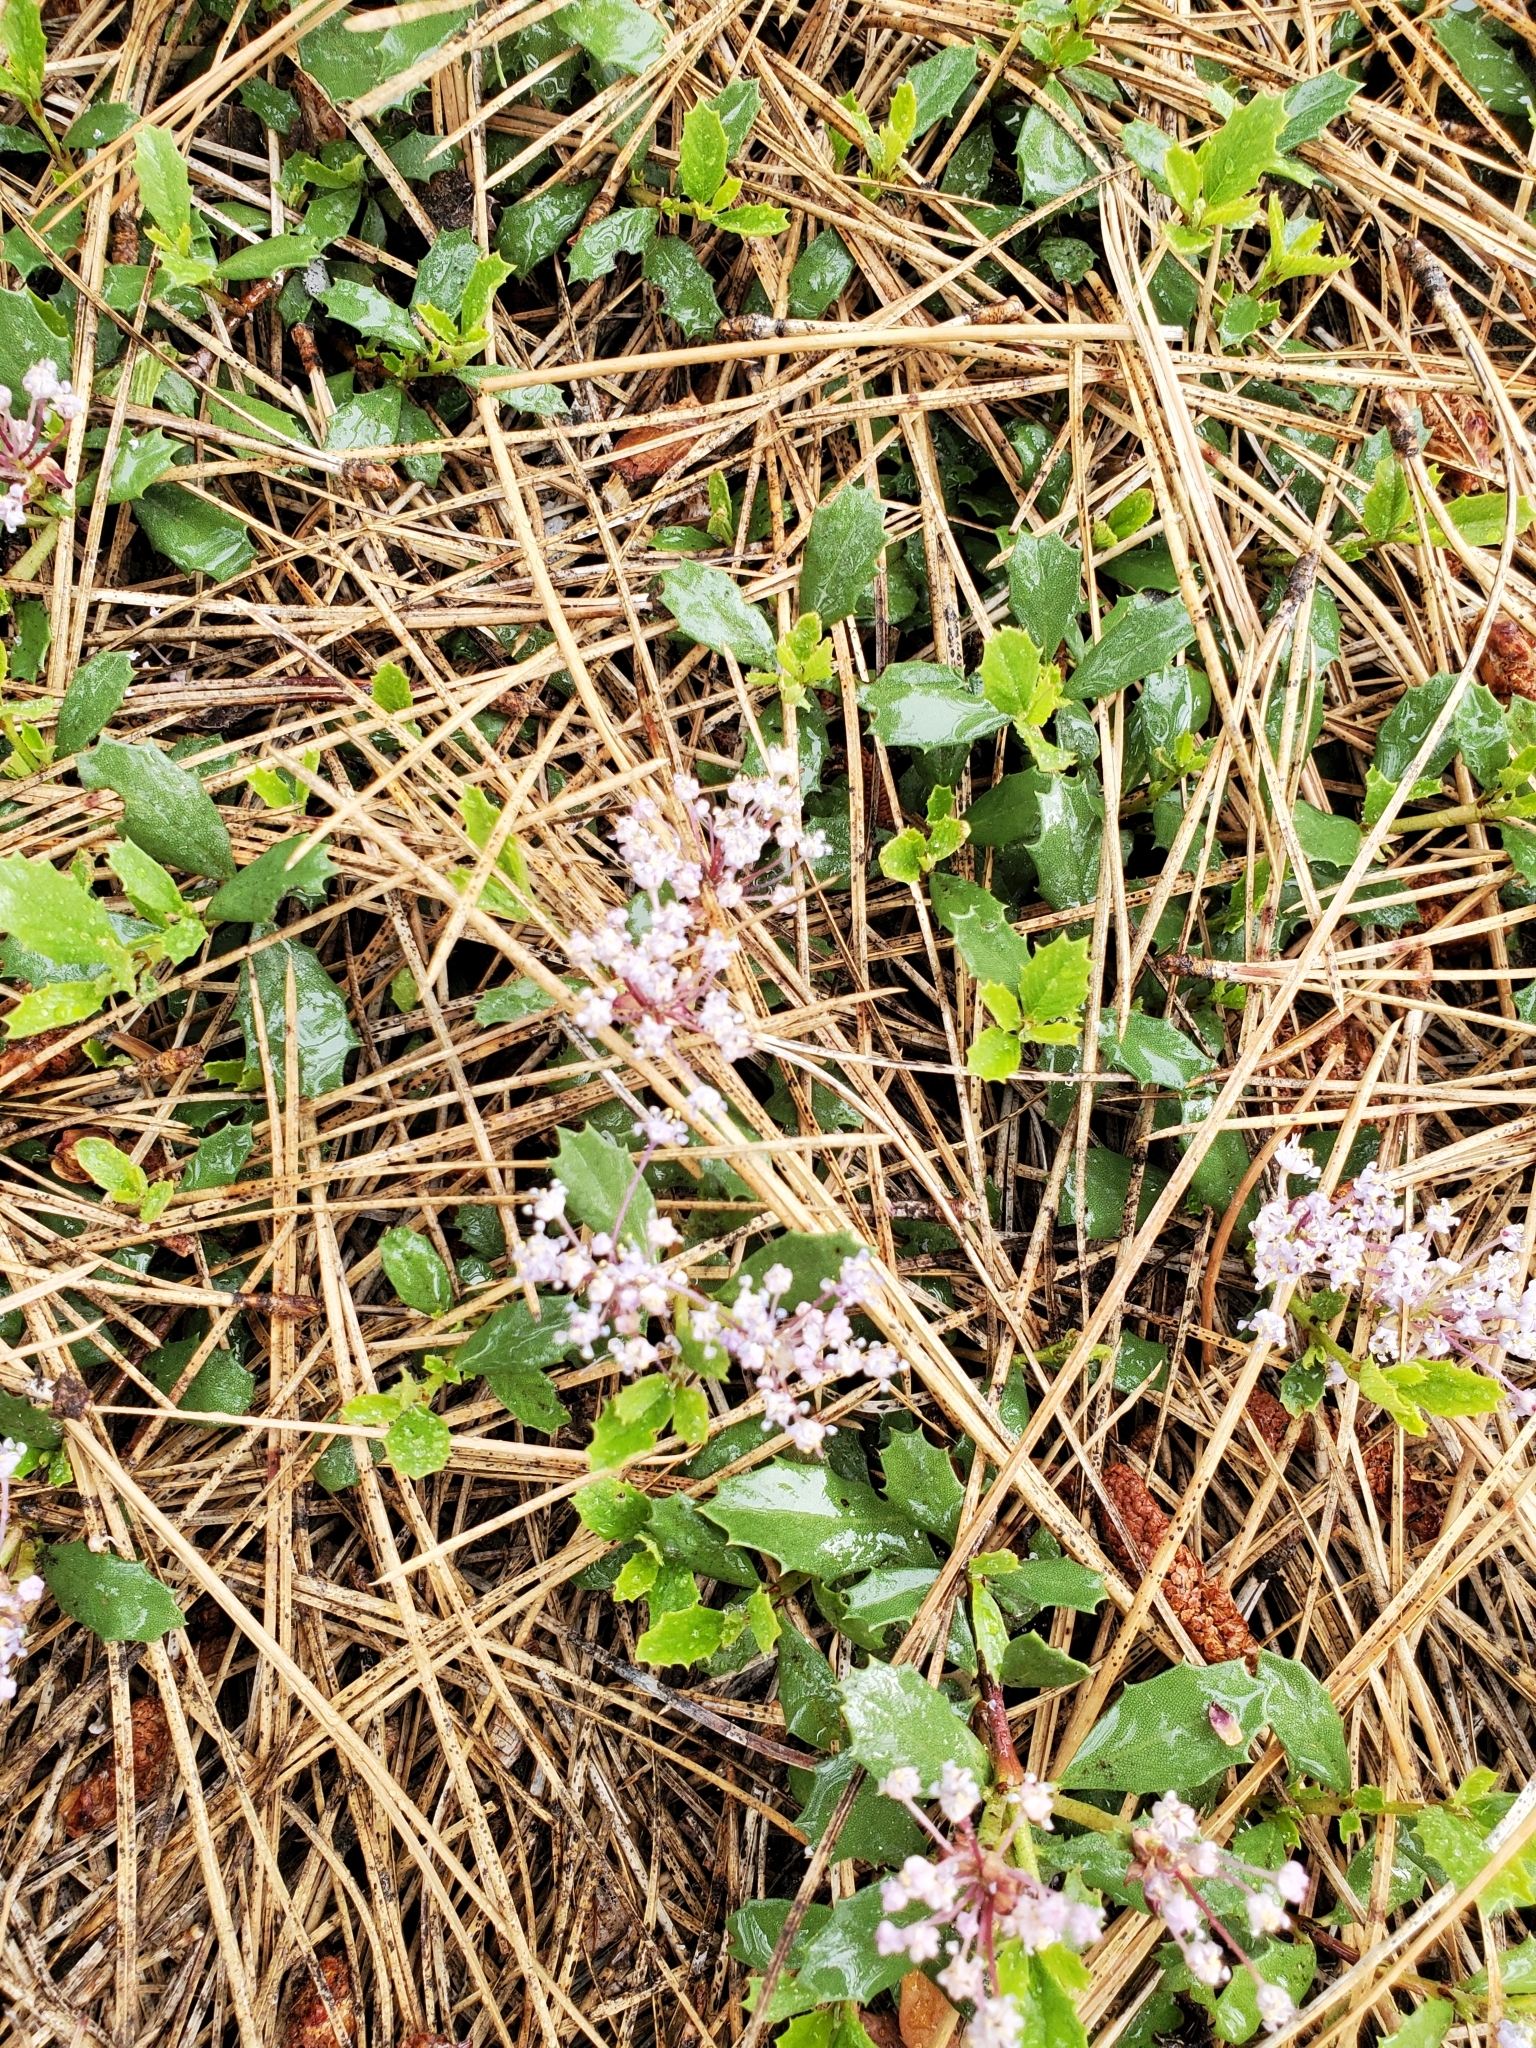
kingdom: Plantae
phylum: Tracheophyta
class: Magnoliopsida
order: Rosales
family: Rhamnaceae
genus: Ceanothus
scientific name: Ceanothus prostratus
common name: Mahala-mat
